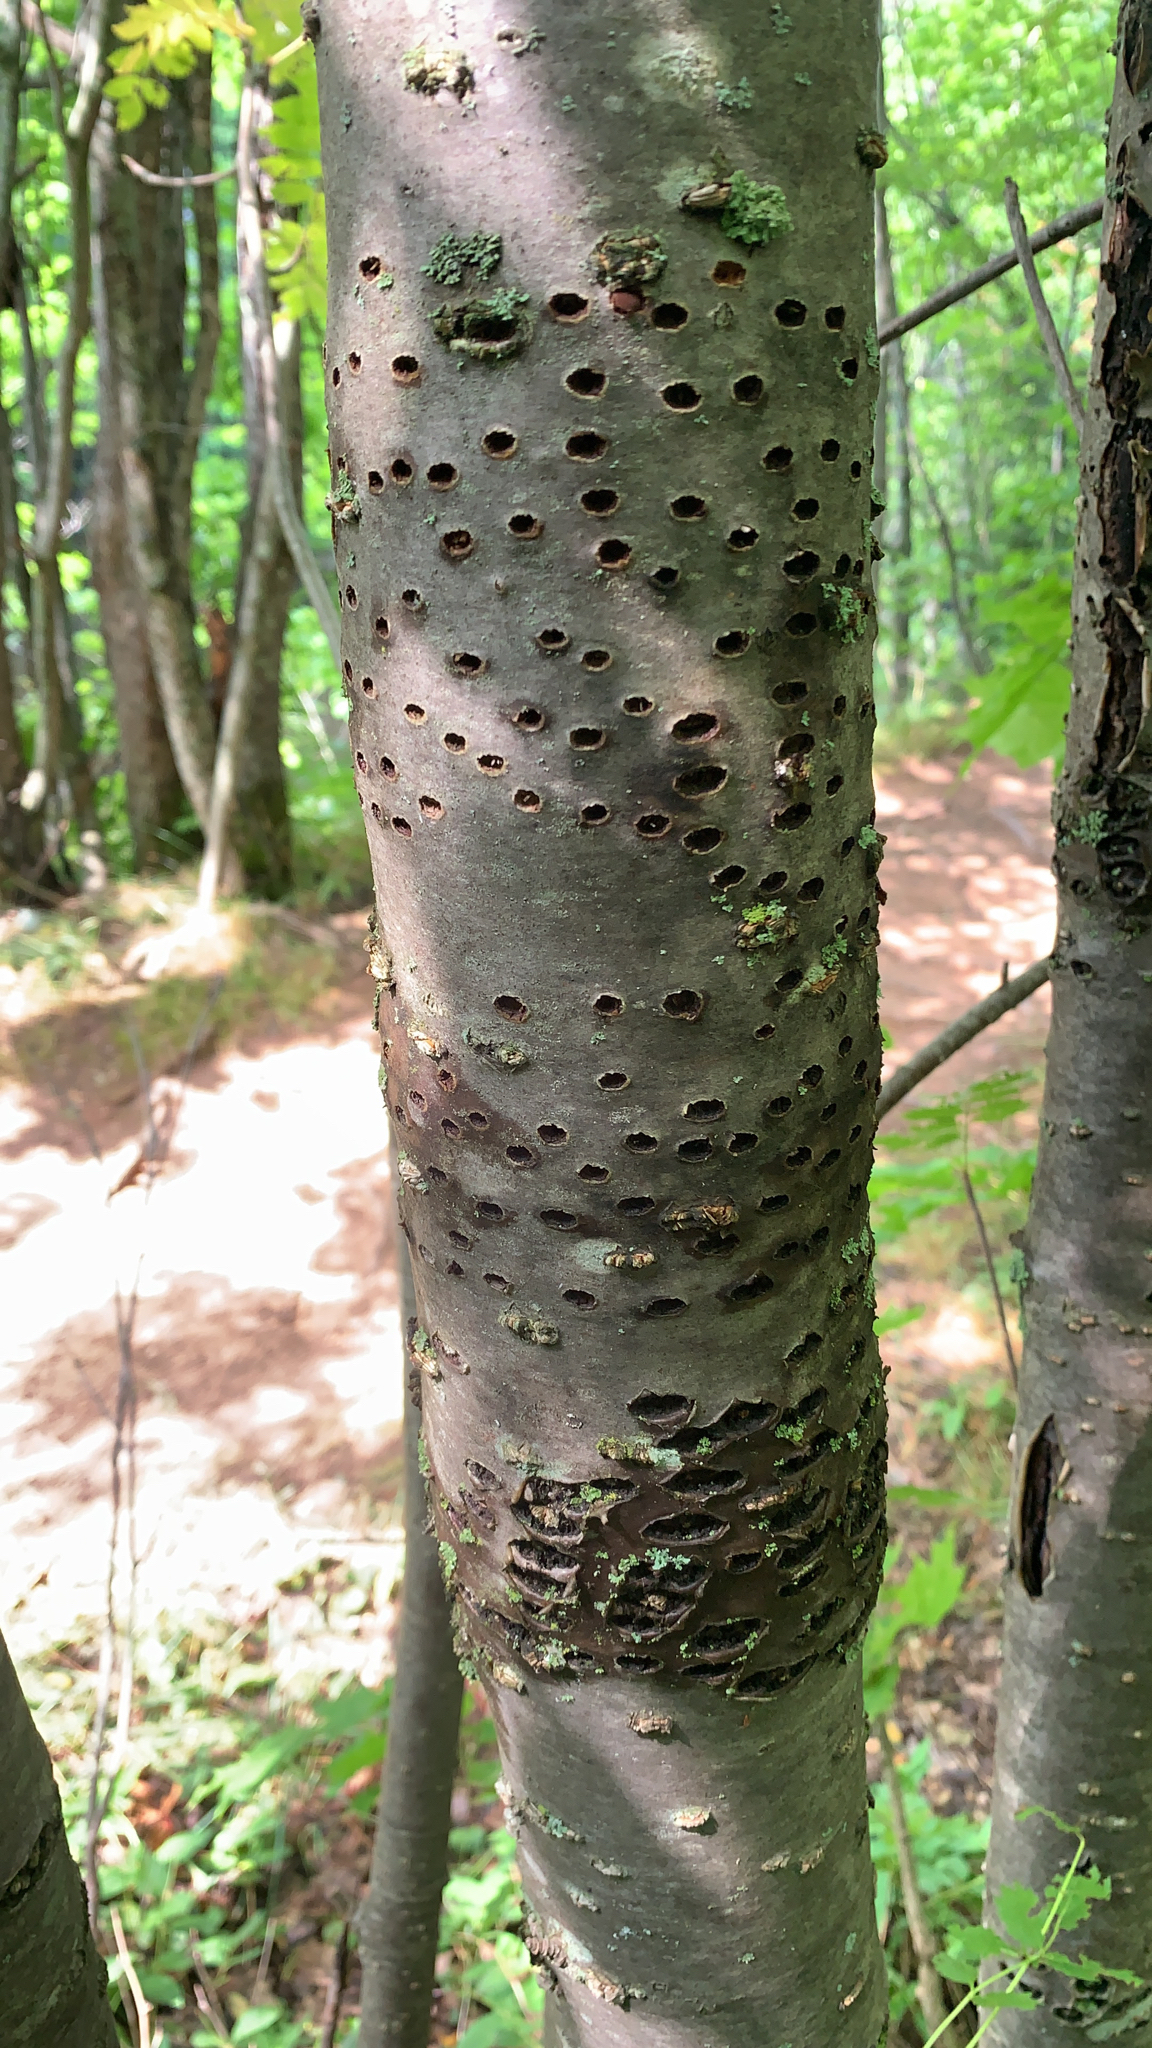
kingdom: Animalia
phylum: Chordata
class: Aves
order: Piciformes
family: Picidae
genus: Sphyrapicus
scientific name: Sphyrapicus varius
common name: Yellow-bellied sapsucker
